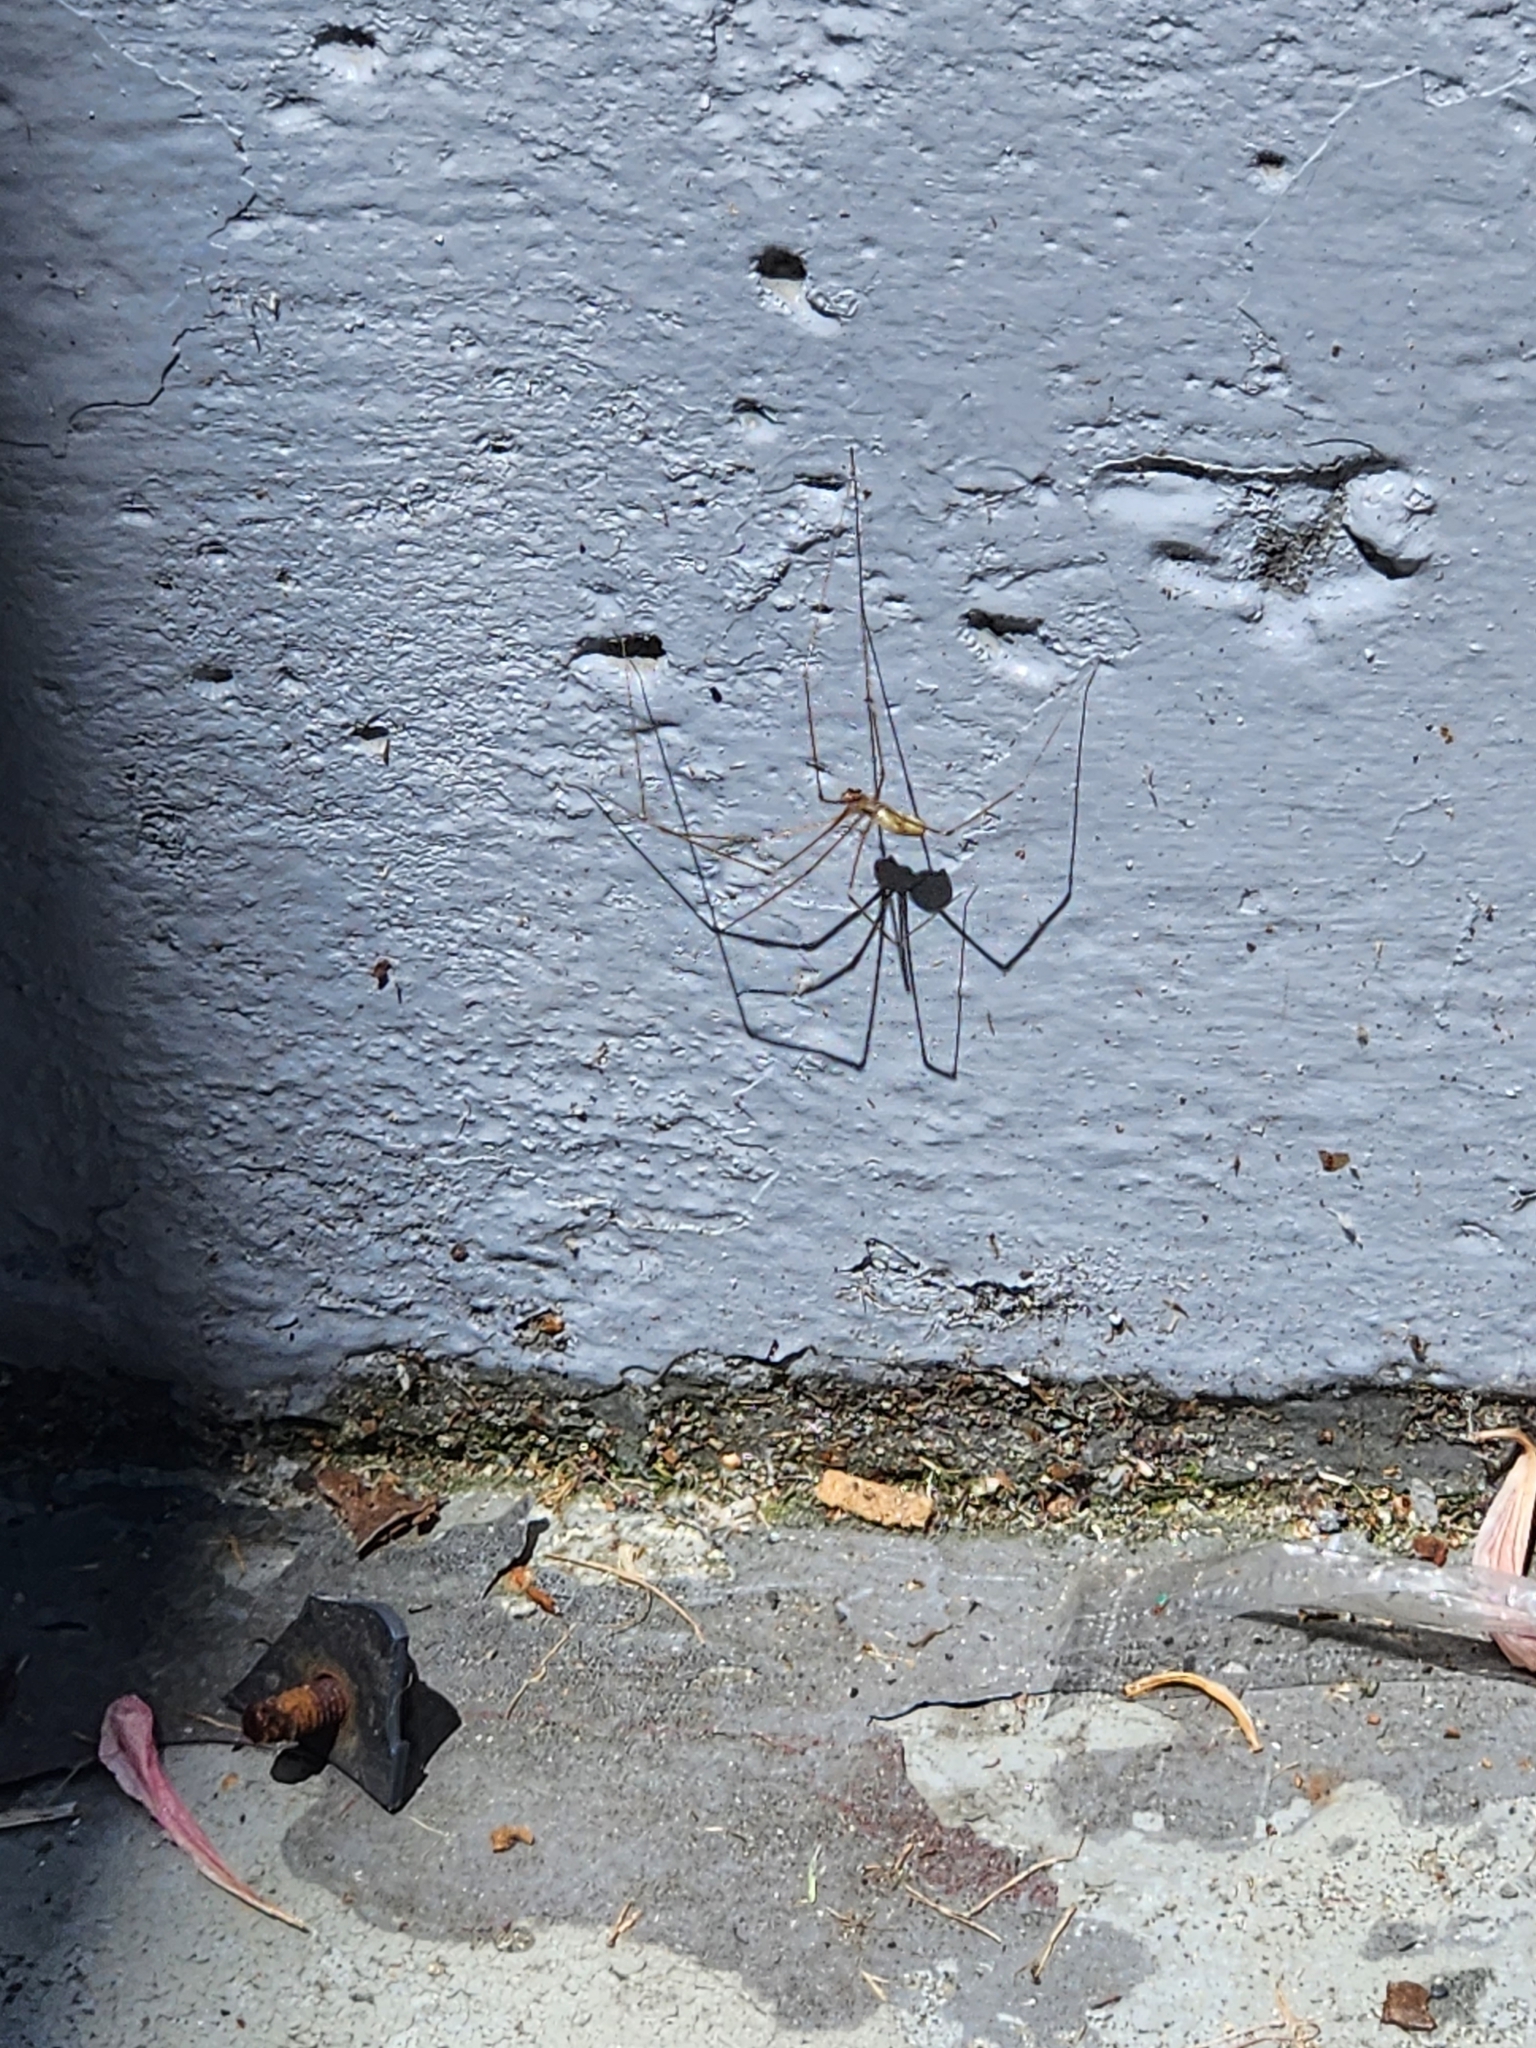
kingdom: Animalia
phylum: Arthropoda
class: Arachnida
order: Araneae
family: Pholcidae
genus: Pholcus
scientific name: Pholcus phalangioides
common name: Longbodied cellar spider
